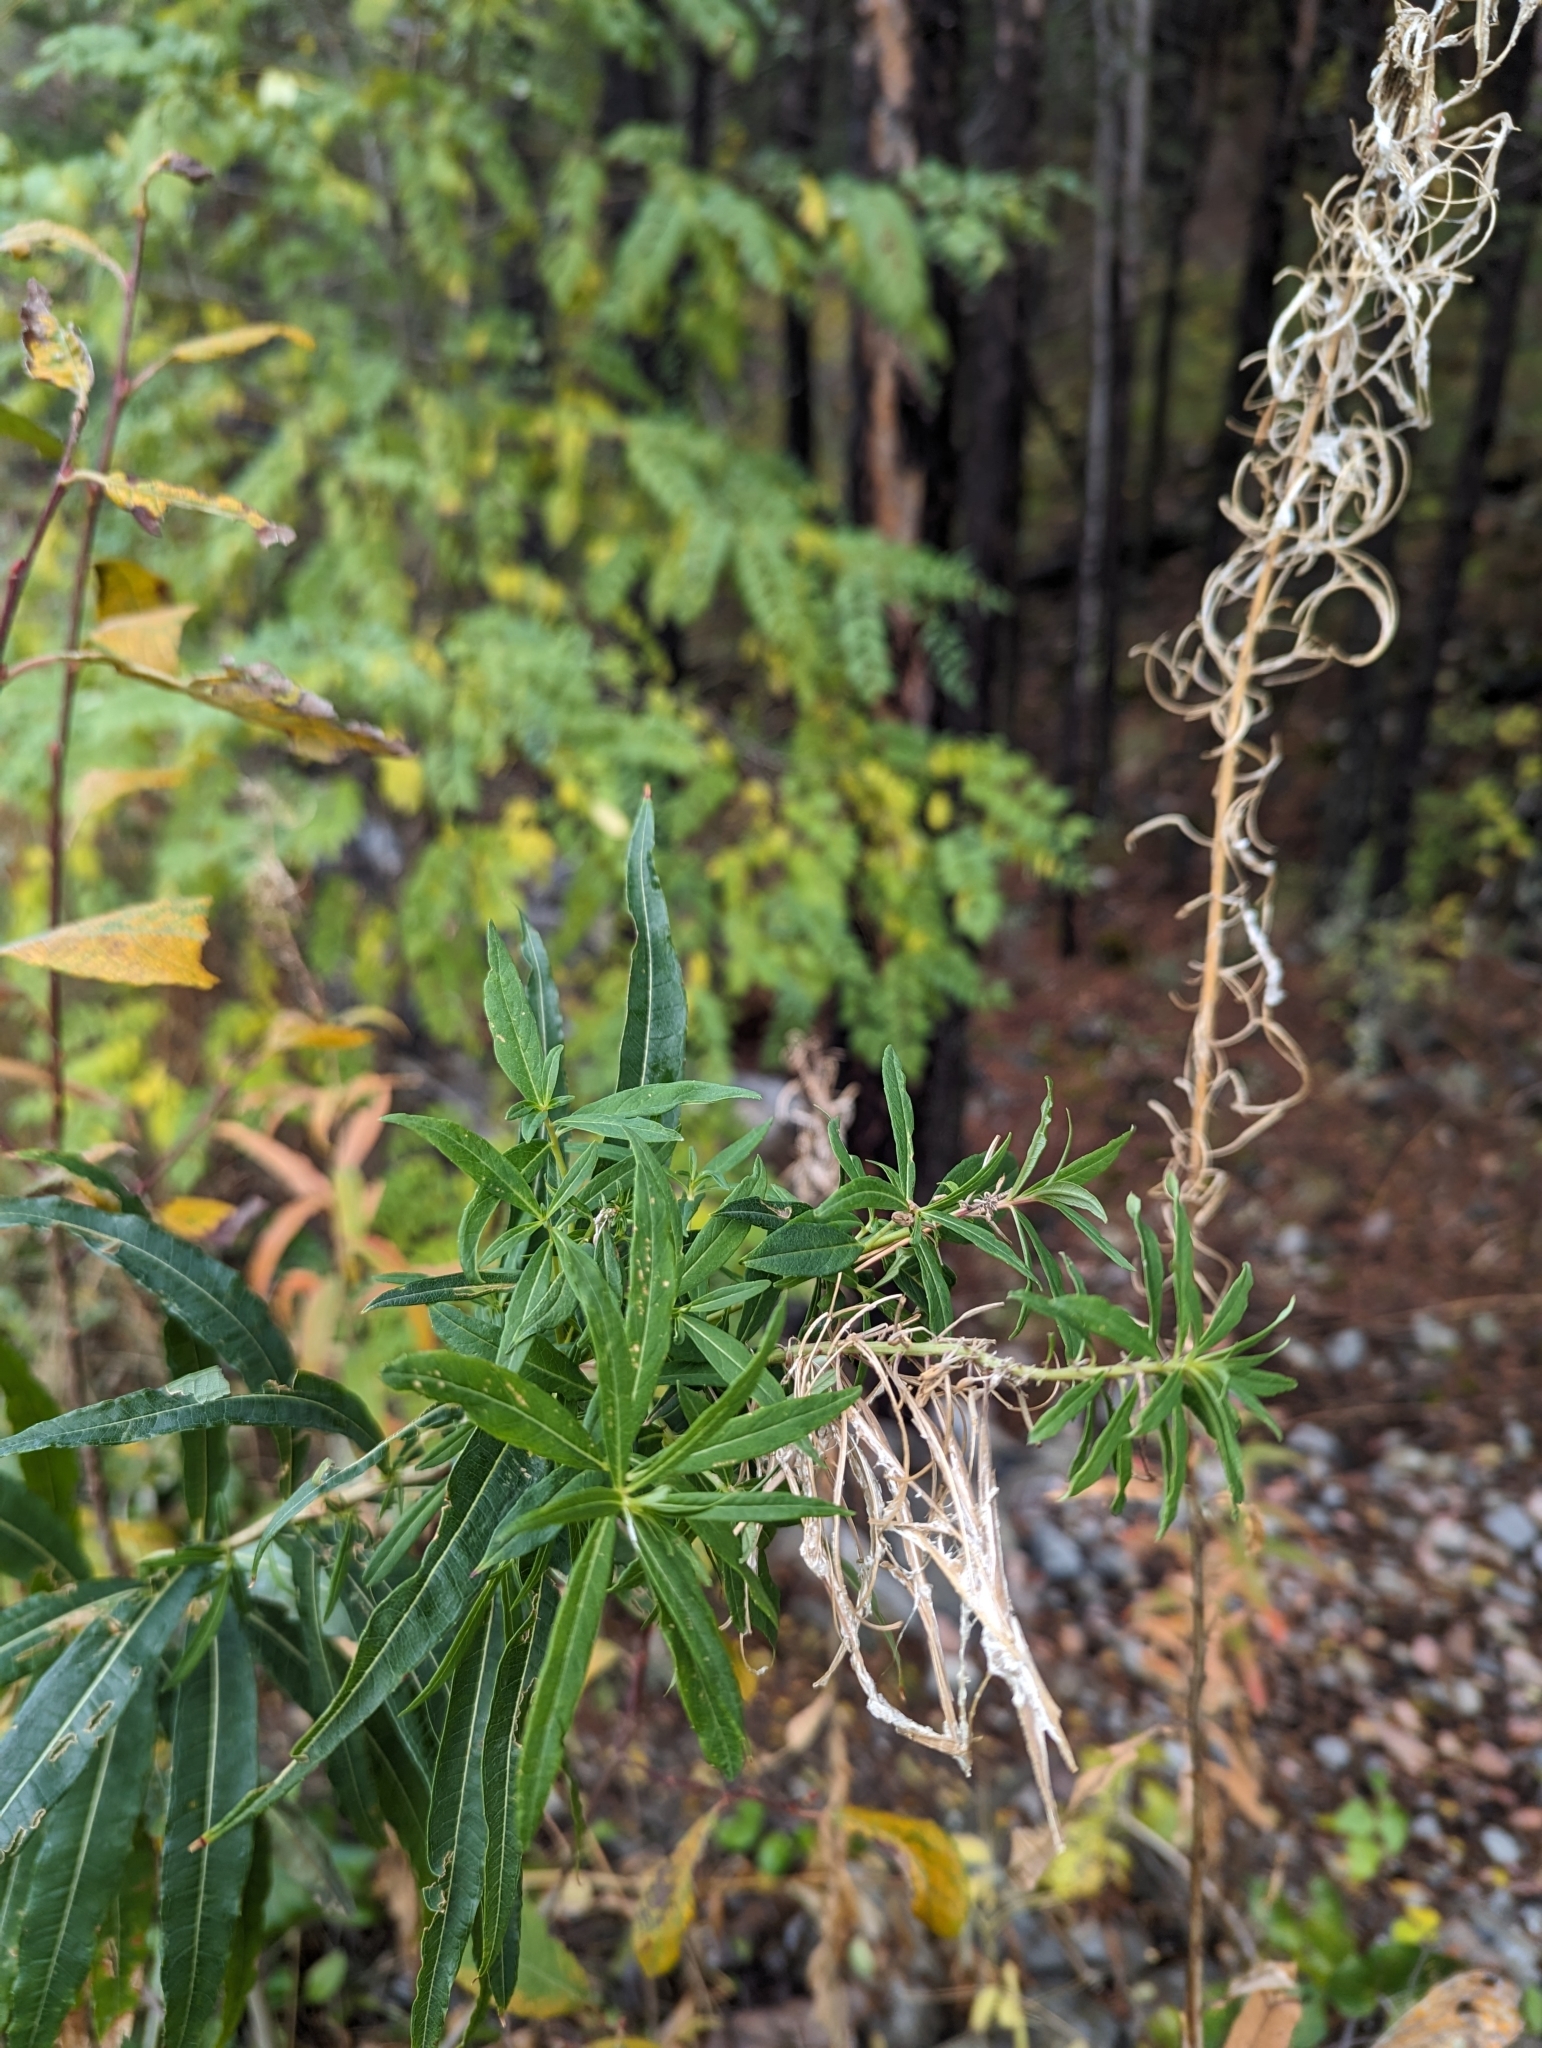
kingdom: Plantae
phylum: Tracheophyta
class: Magnoliopsida
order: Myrtales
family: Onagraceae
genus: Chamaenerion
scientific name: Chamaenerion angustifolium
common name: Fireweed
